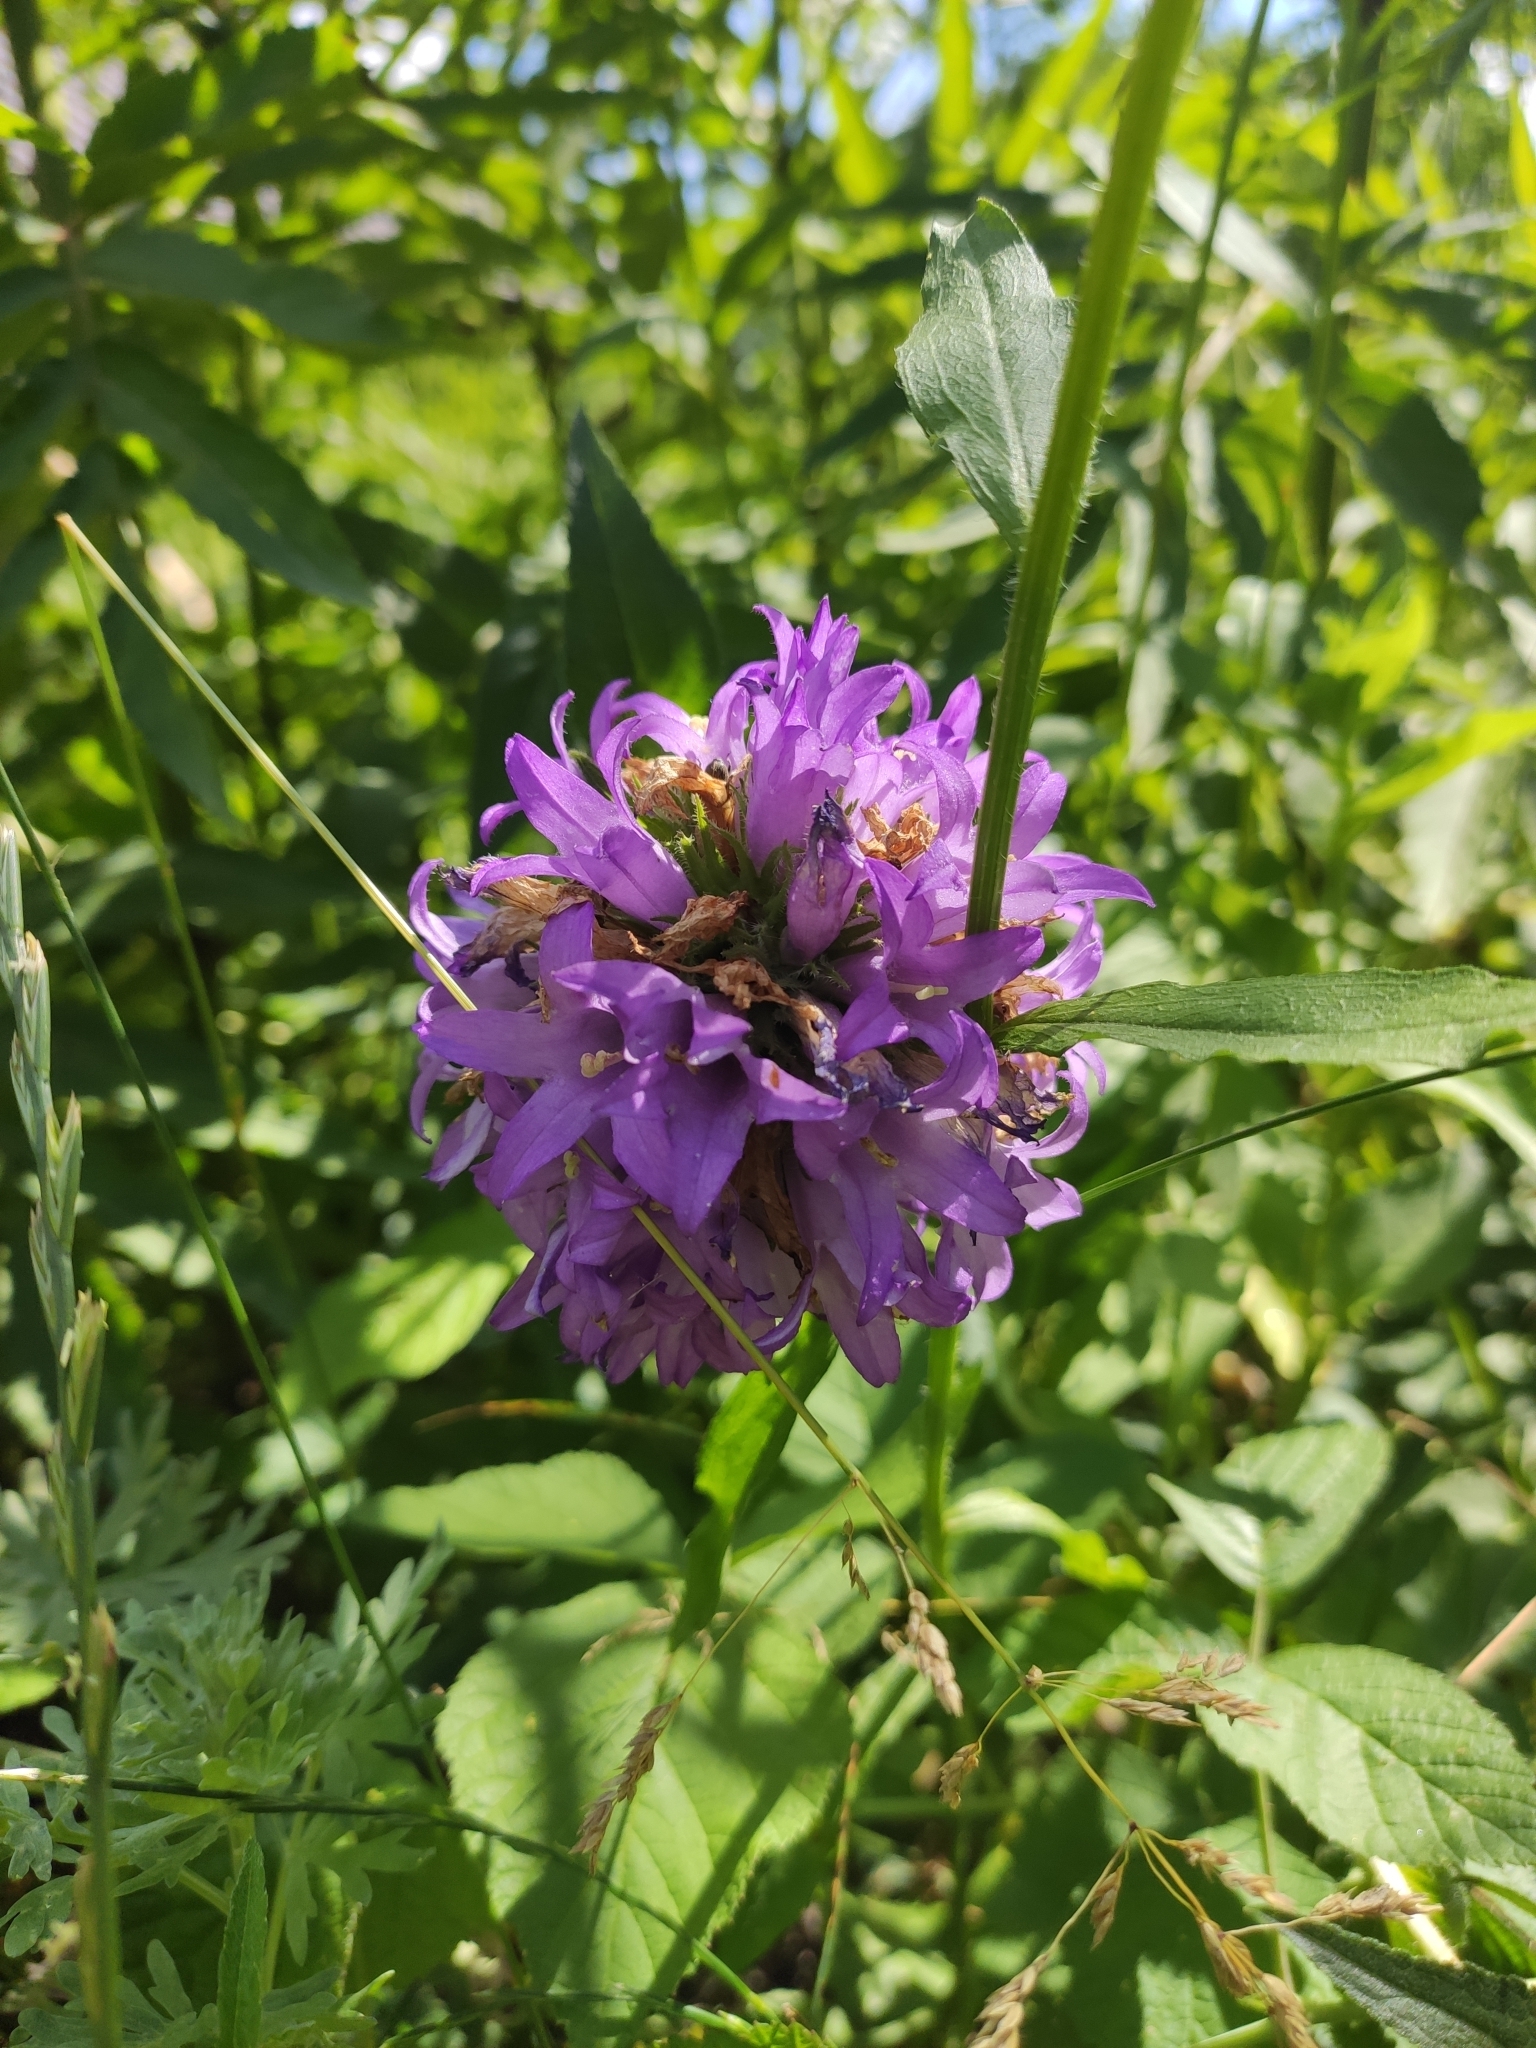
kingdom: Plantae
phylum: Tracheophyta
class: Magnoliopsida
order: Asterales
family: Campanulaceae
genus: Campanula
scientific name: Campanula glomerata
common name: Clustered bellflower
